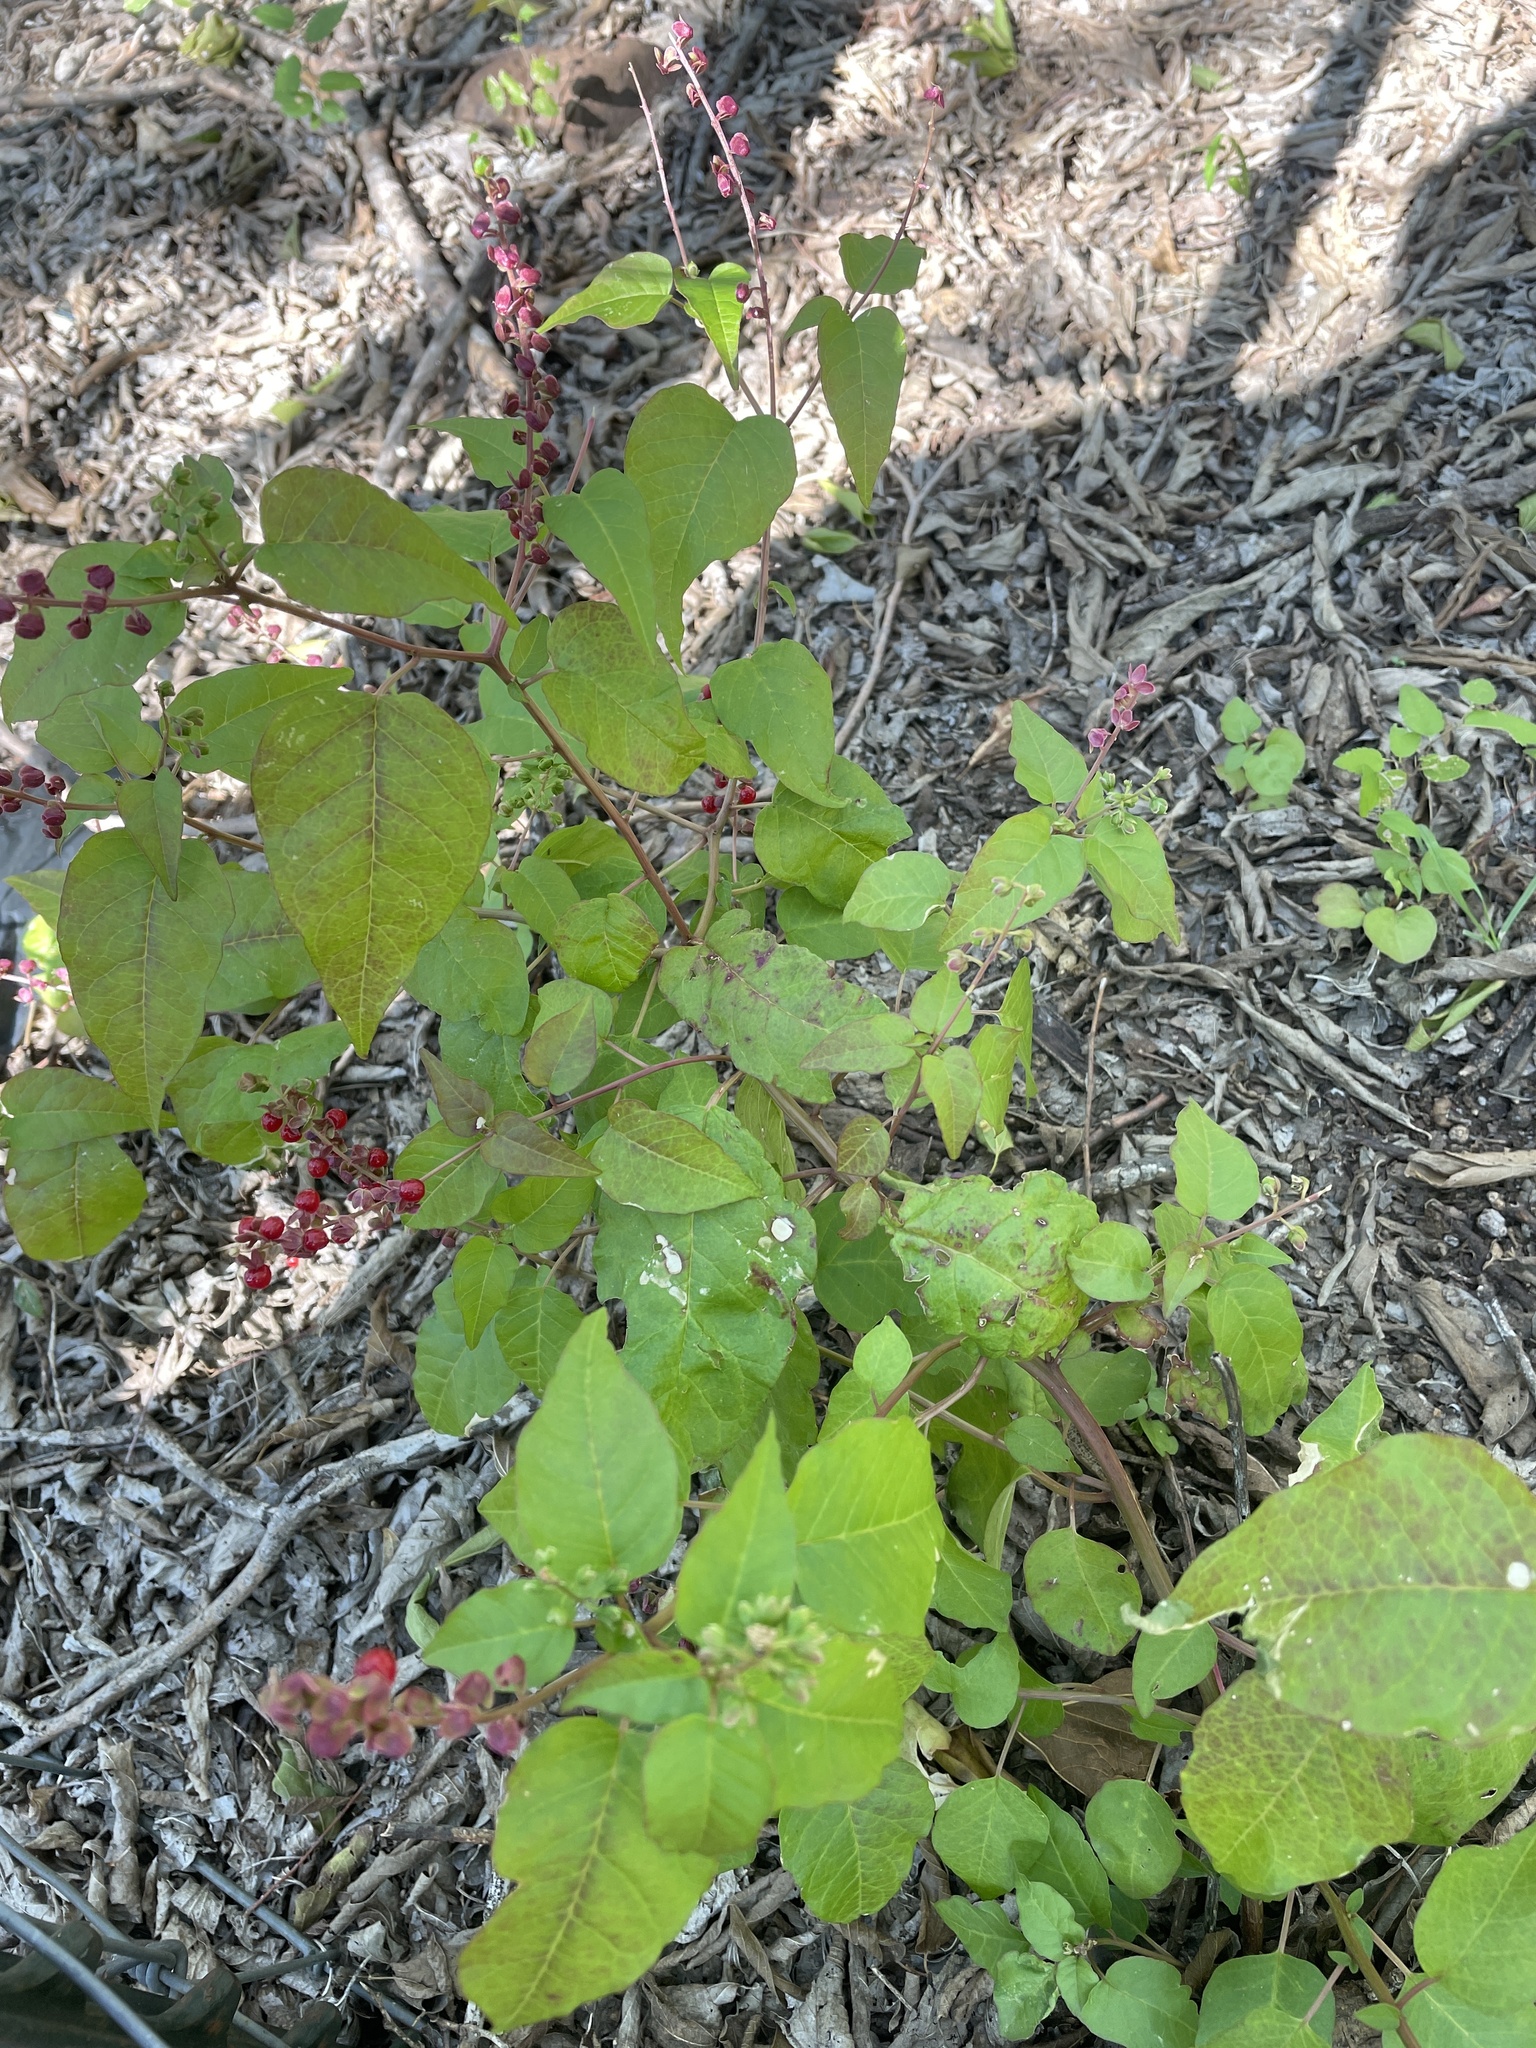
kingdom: Plantae
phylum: Tracheophyta
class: Magnoliopsida
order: Caryophyllales
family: Phytolaccaceae
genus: Rivina
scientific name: Rivina humilis
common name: Rougeplant
